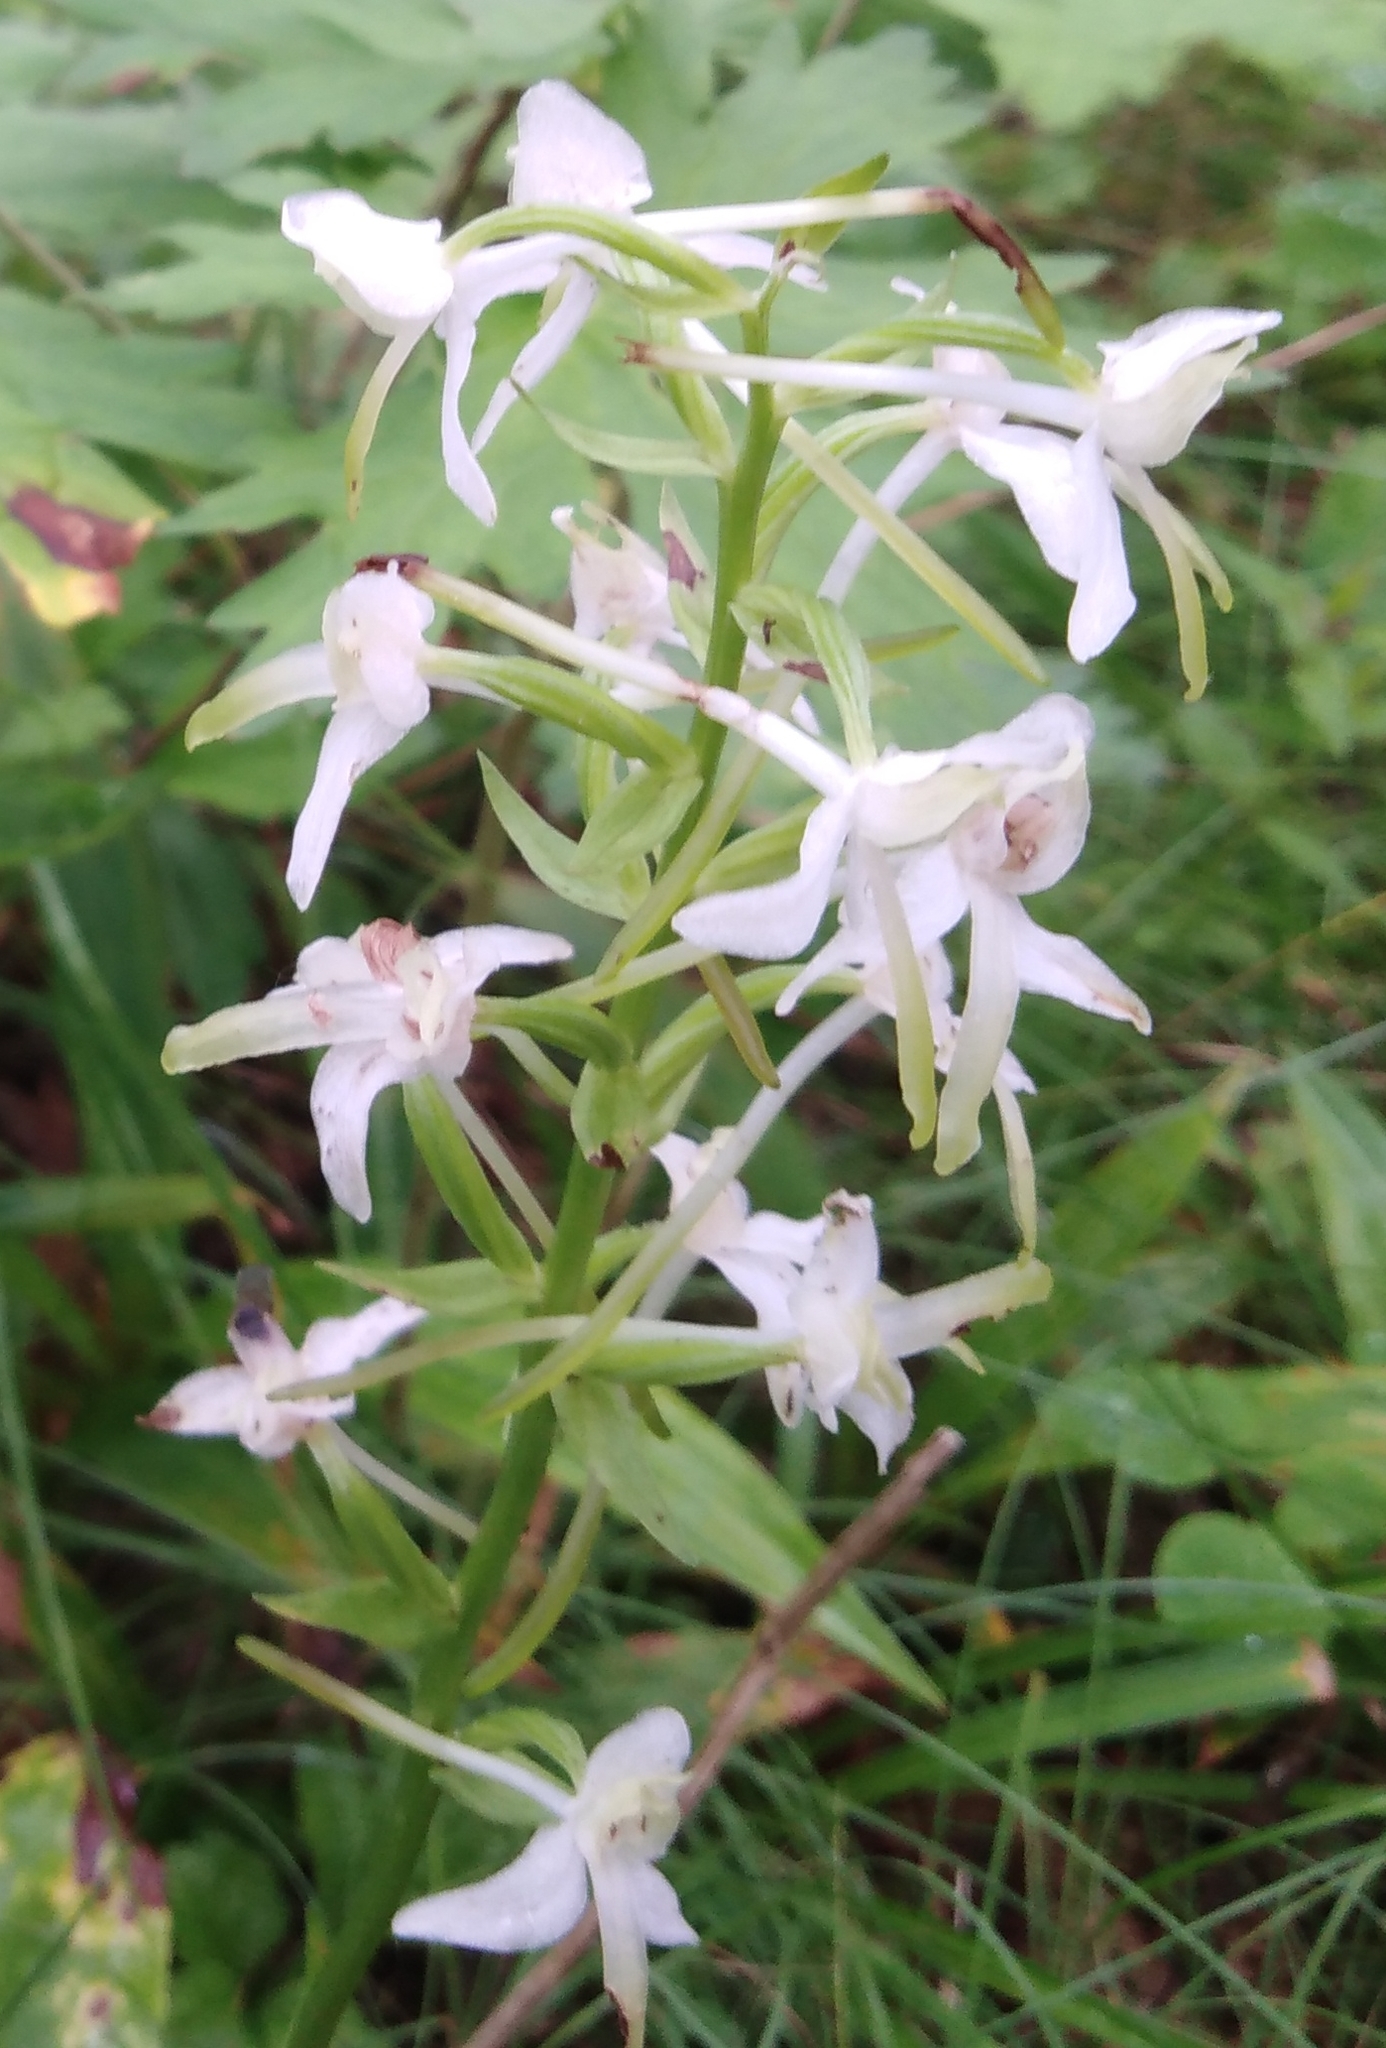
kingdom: Plantae
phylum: Tracheophyta
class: Liliopsida
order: Asparagales
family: Orchidaceae
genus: Platanthera
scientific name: Platanthera metabifolia
